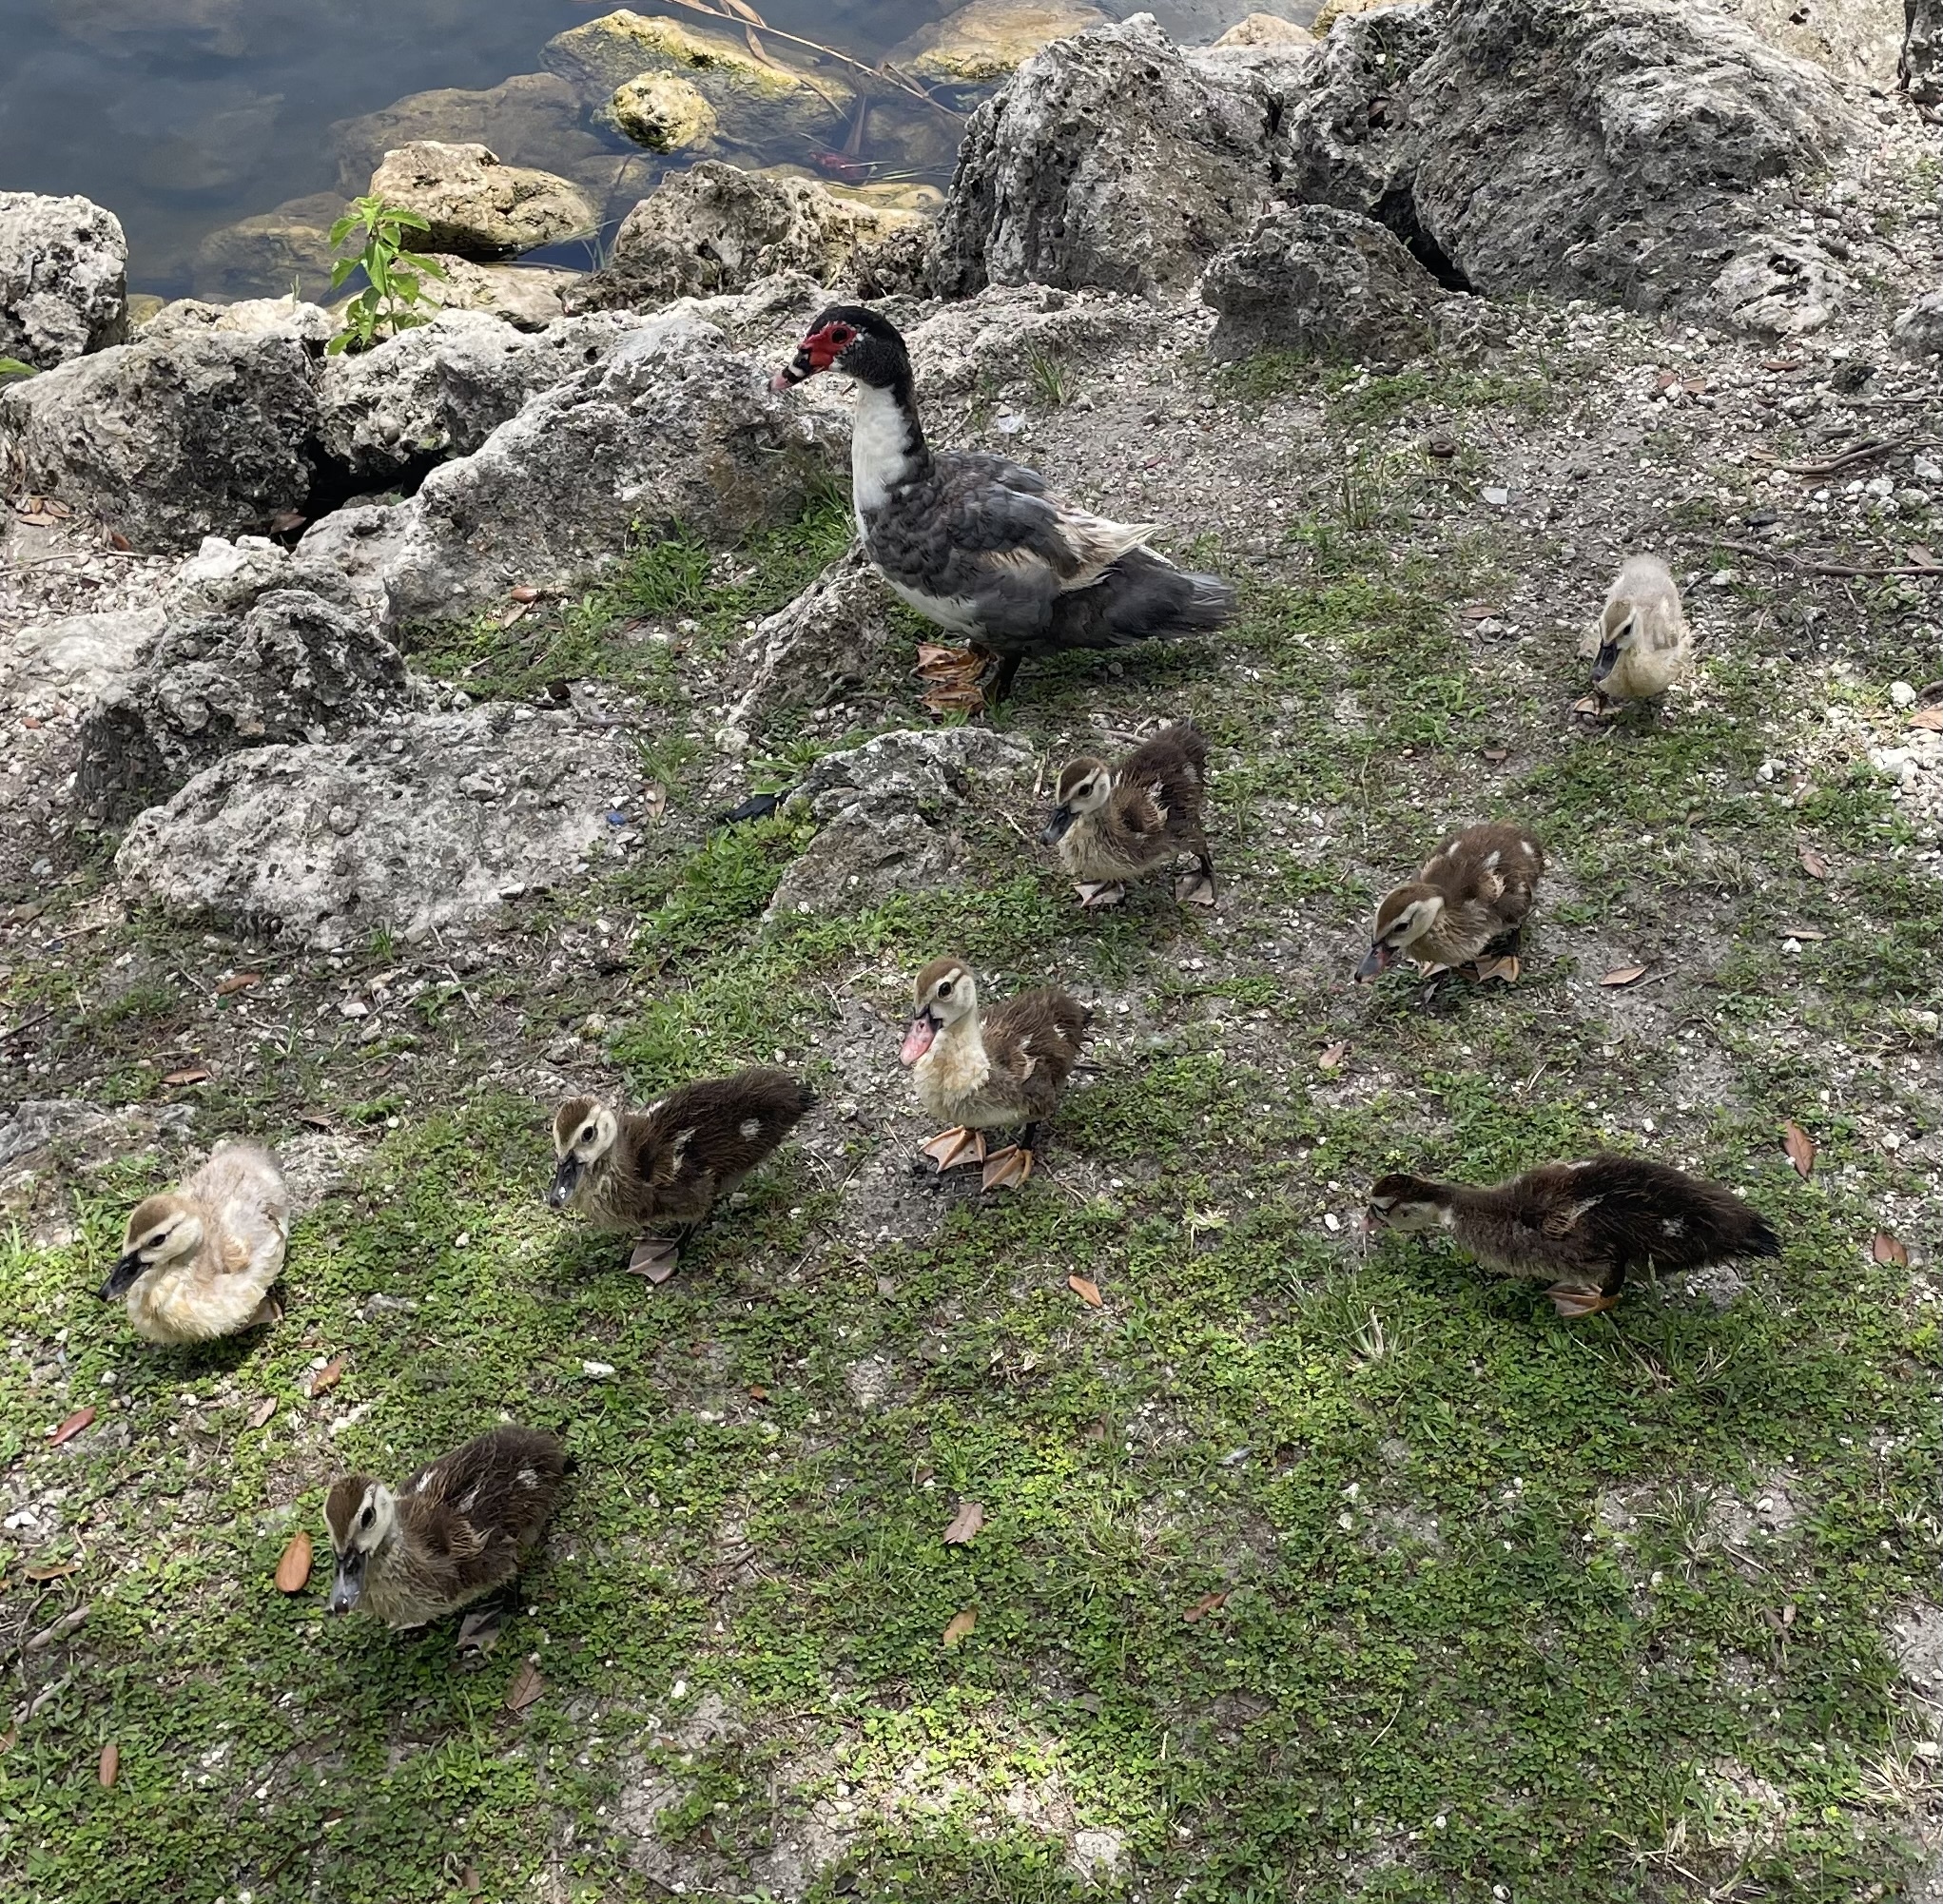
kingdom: Animalia
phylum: Chordata
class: Aves
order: Anseriformes
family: Anatidae
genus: Cairina
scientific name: Cairina moschata
